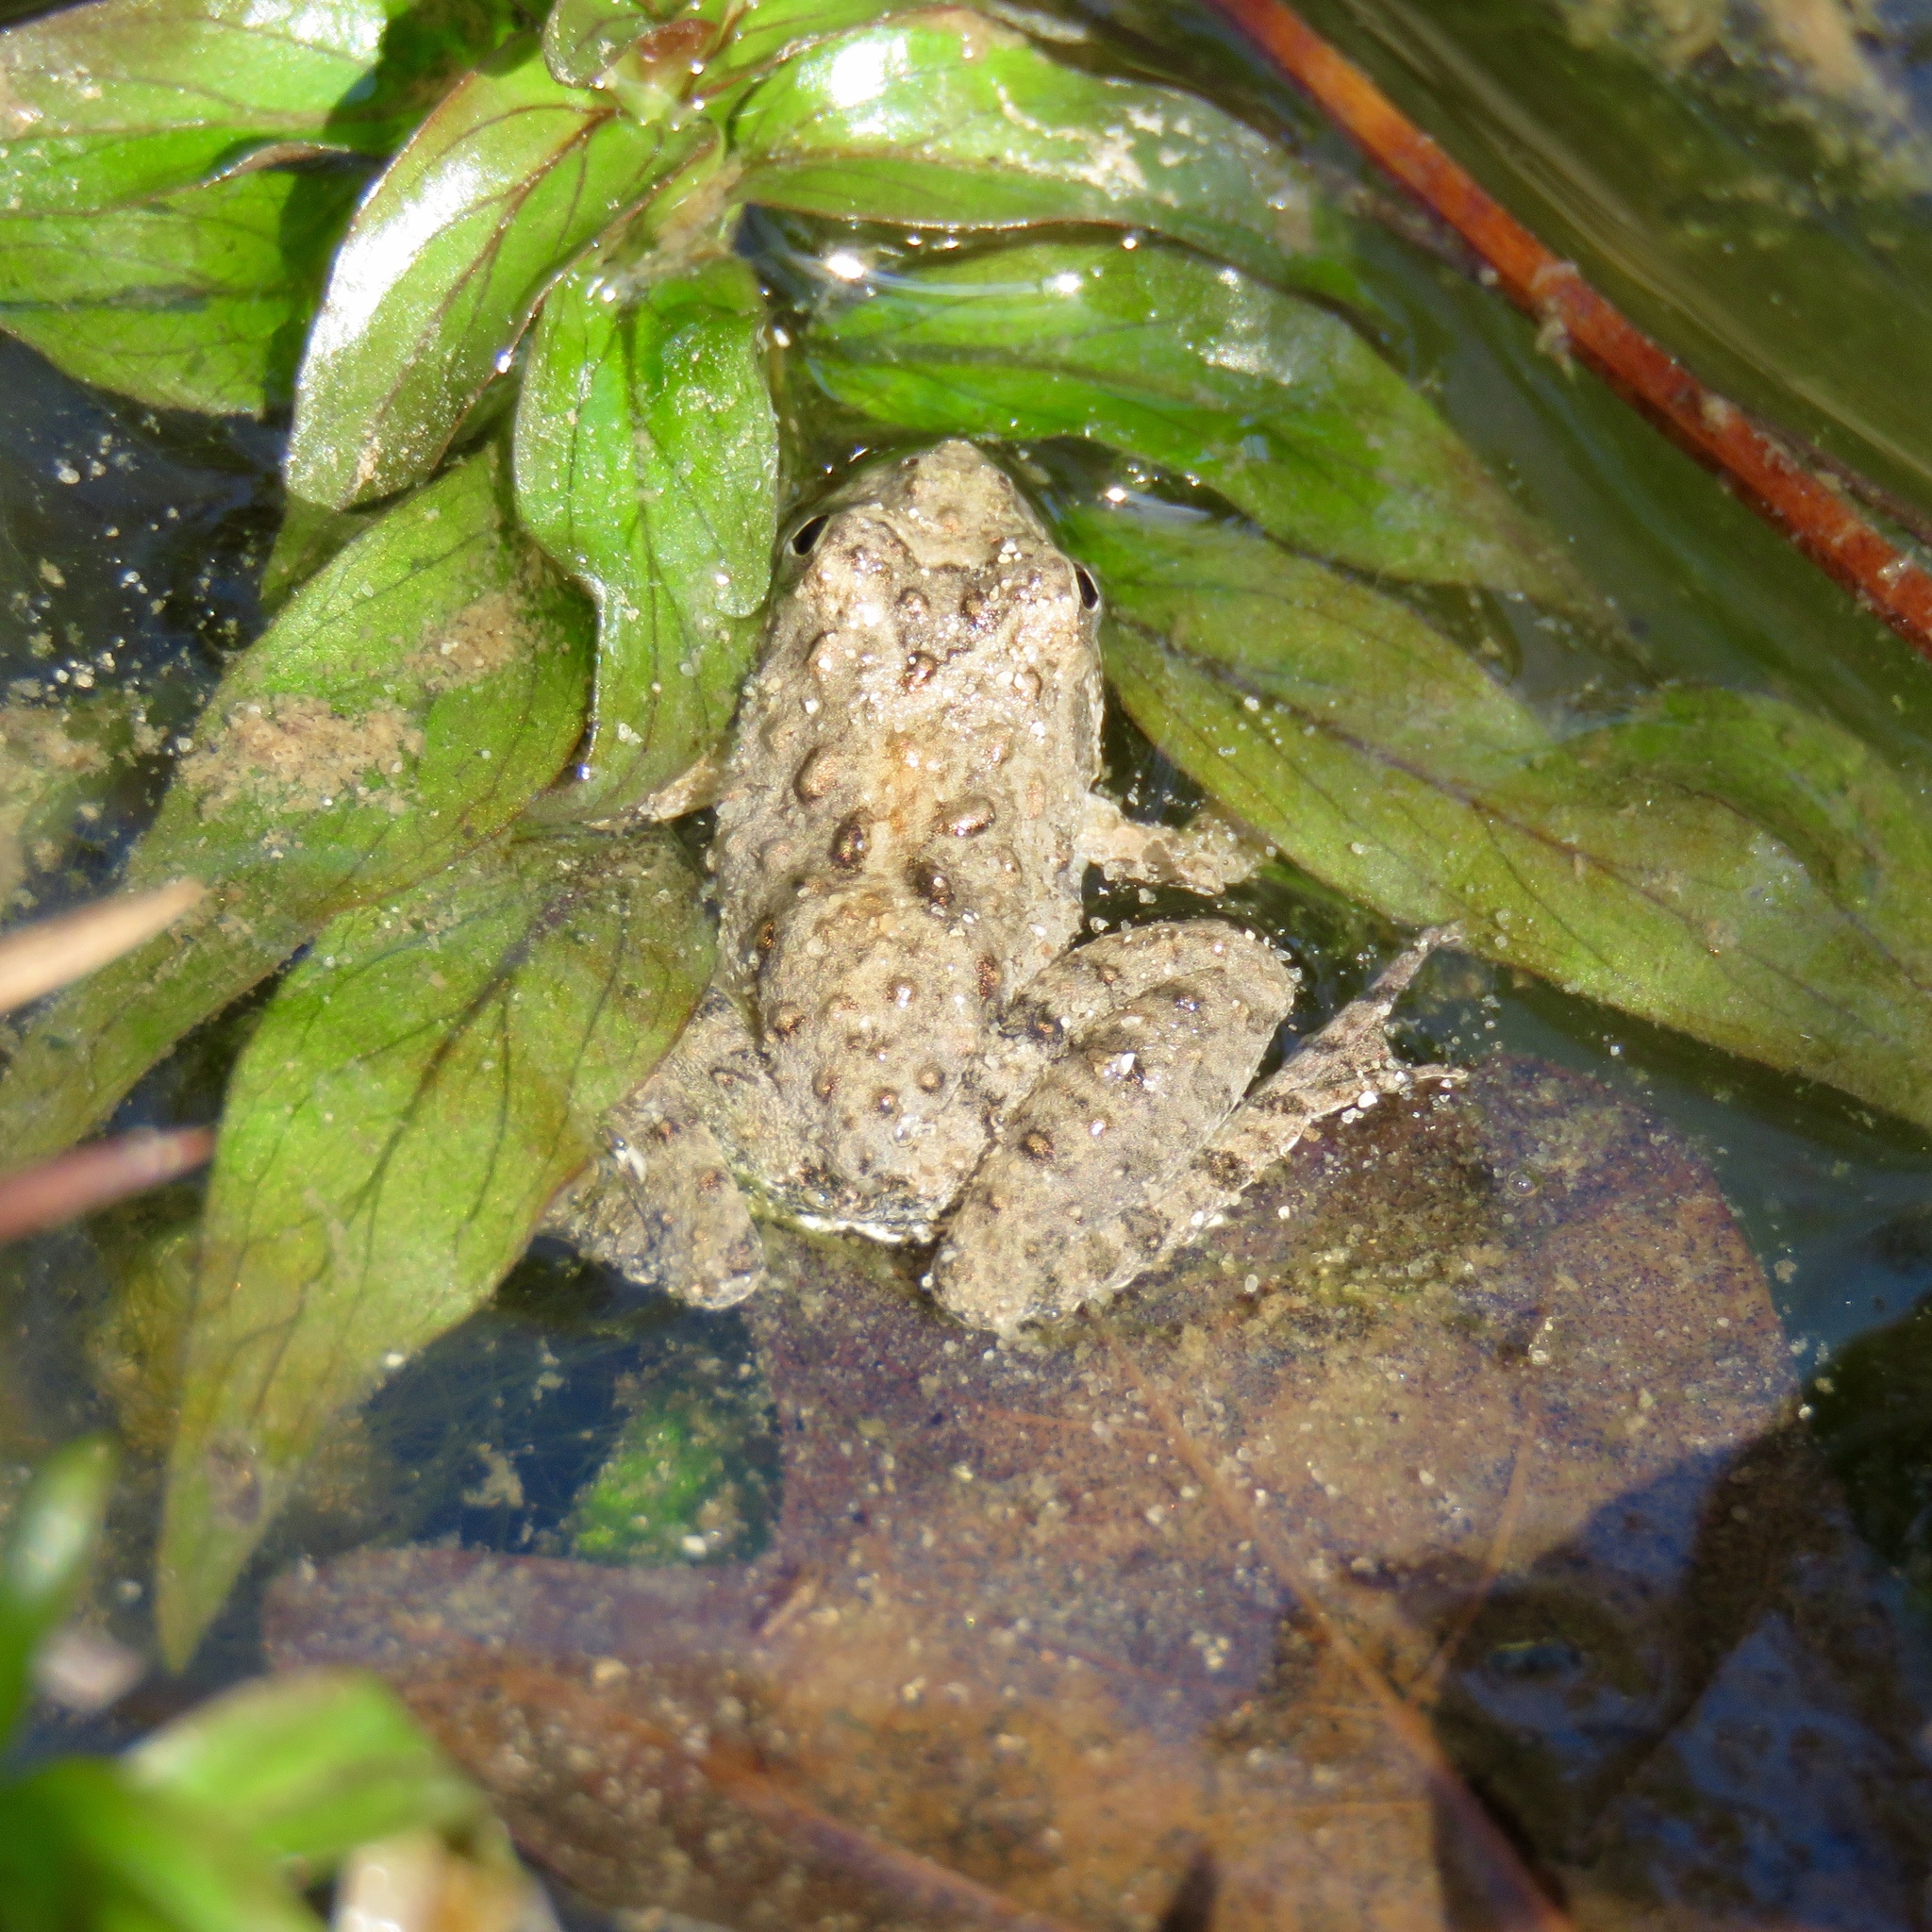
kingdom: Animalia
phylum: Chordata
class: Amphibia
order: Anura
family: Hylidae
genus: Acris
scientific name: Acris blanchardi
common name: Blanchard's cricket frog
